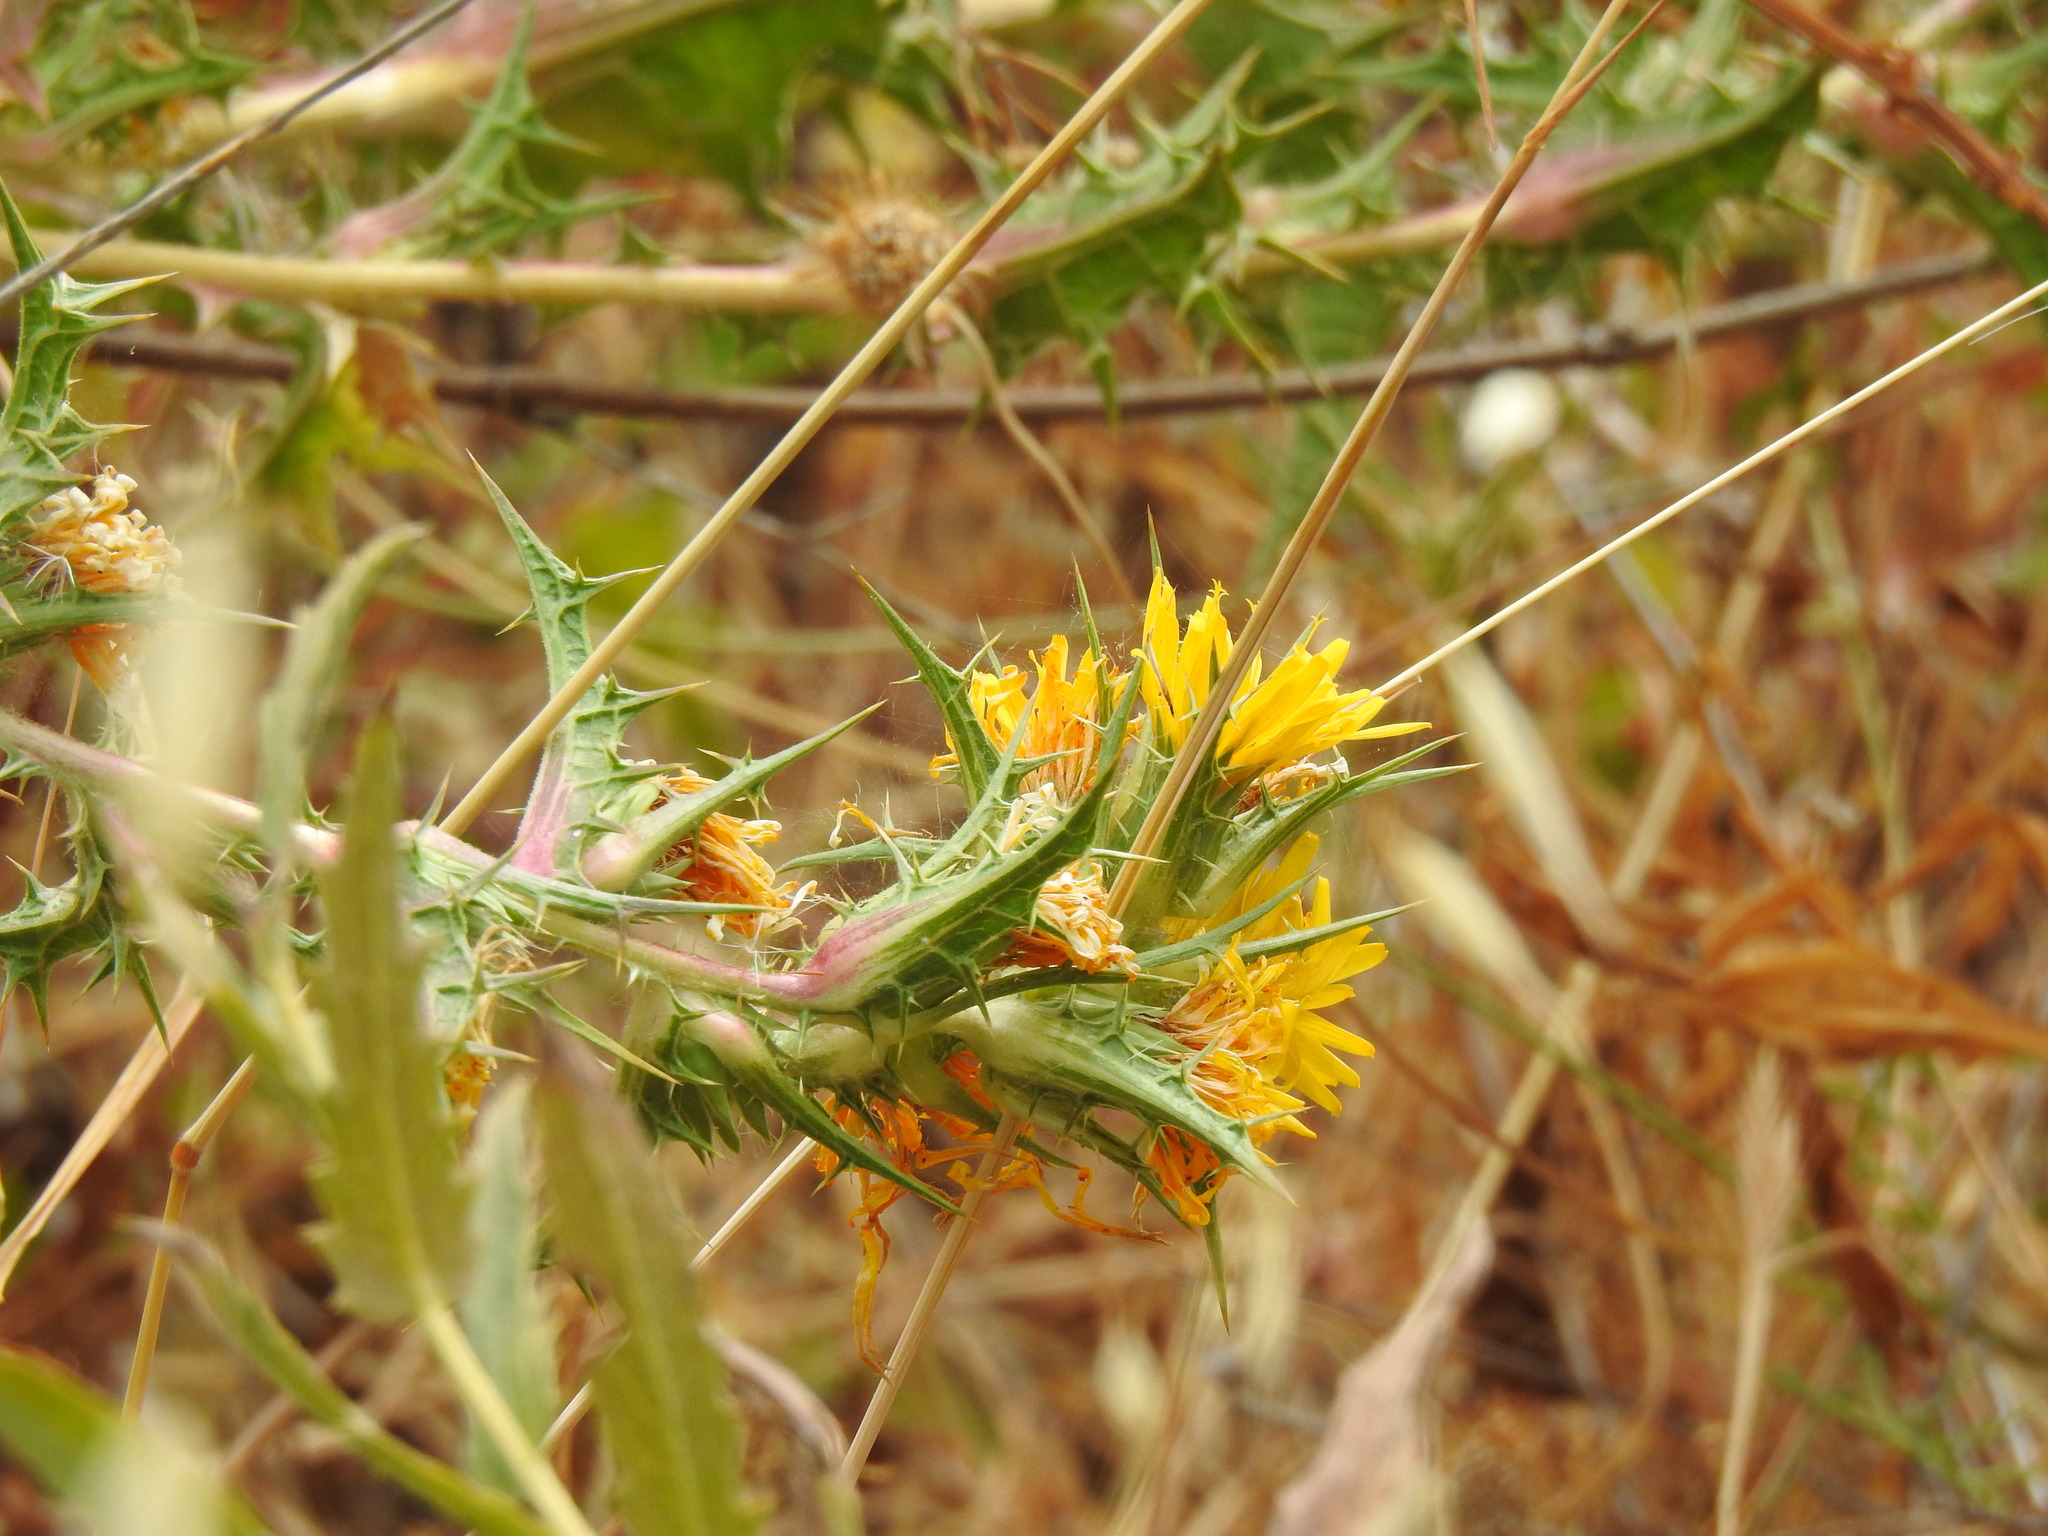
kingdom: Plantae
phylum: Tracheophyta
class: Magnoliopsida
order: Asterales
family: Asteraceae
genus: Scolymus
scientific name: Scolymus hispanicus
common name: Golden thistle
